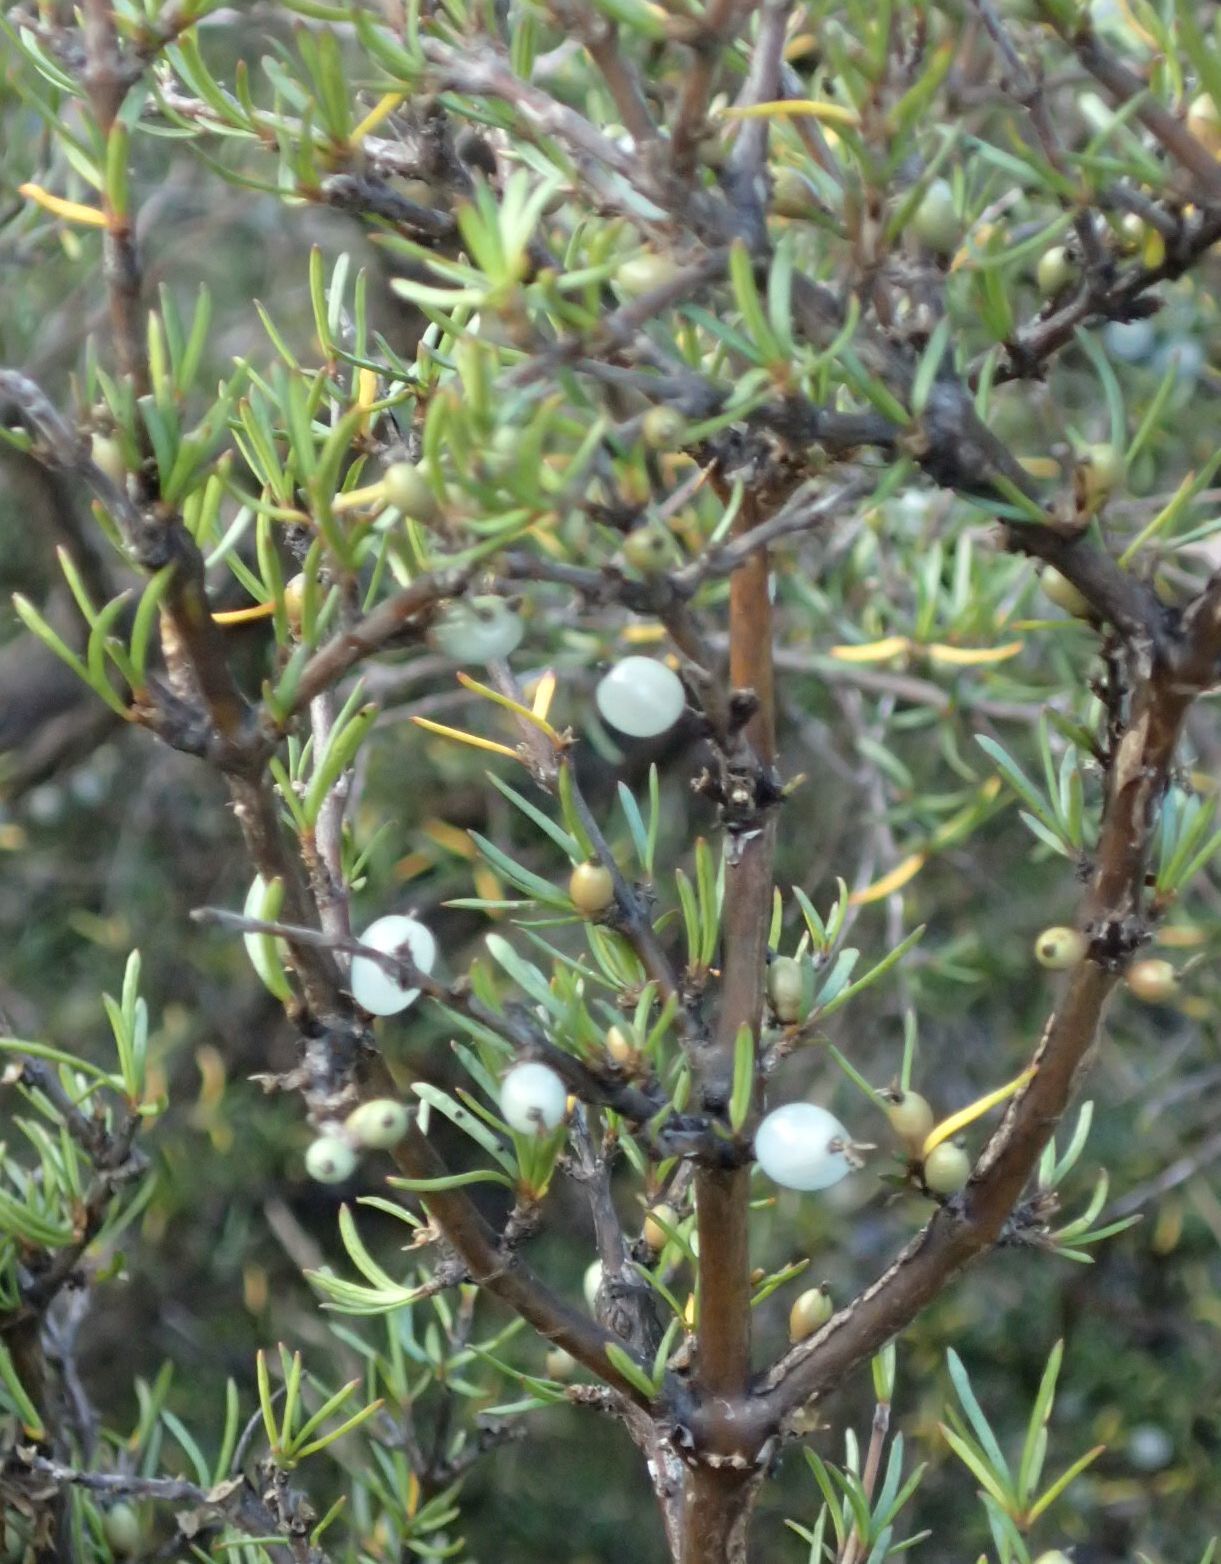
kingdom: Plantae
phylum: Tracheophyta
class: Magnoliopsida
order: Gentianales
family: Rubiaceae
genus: Coprosma
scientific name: Coprosma rugosa
